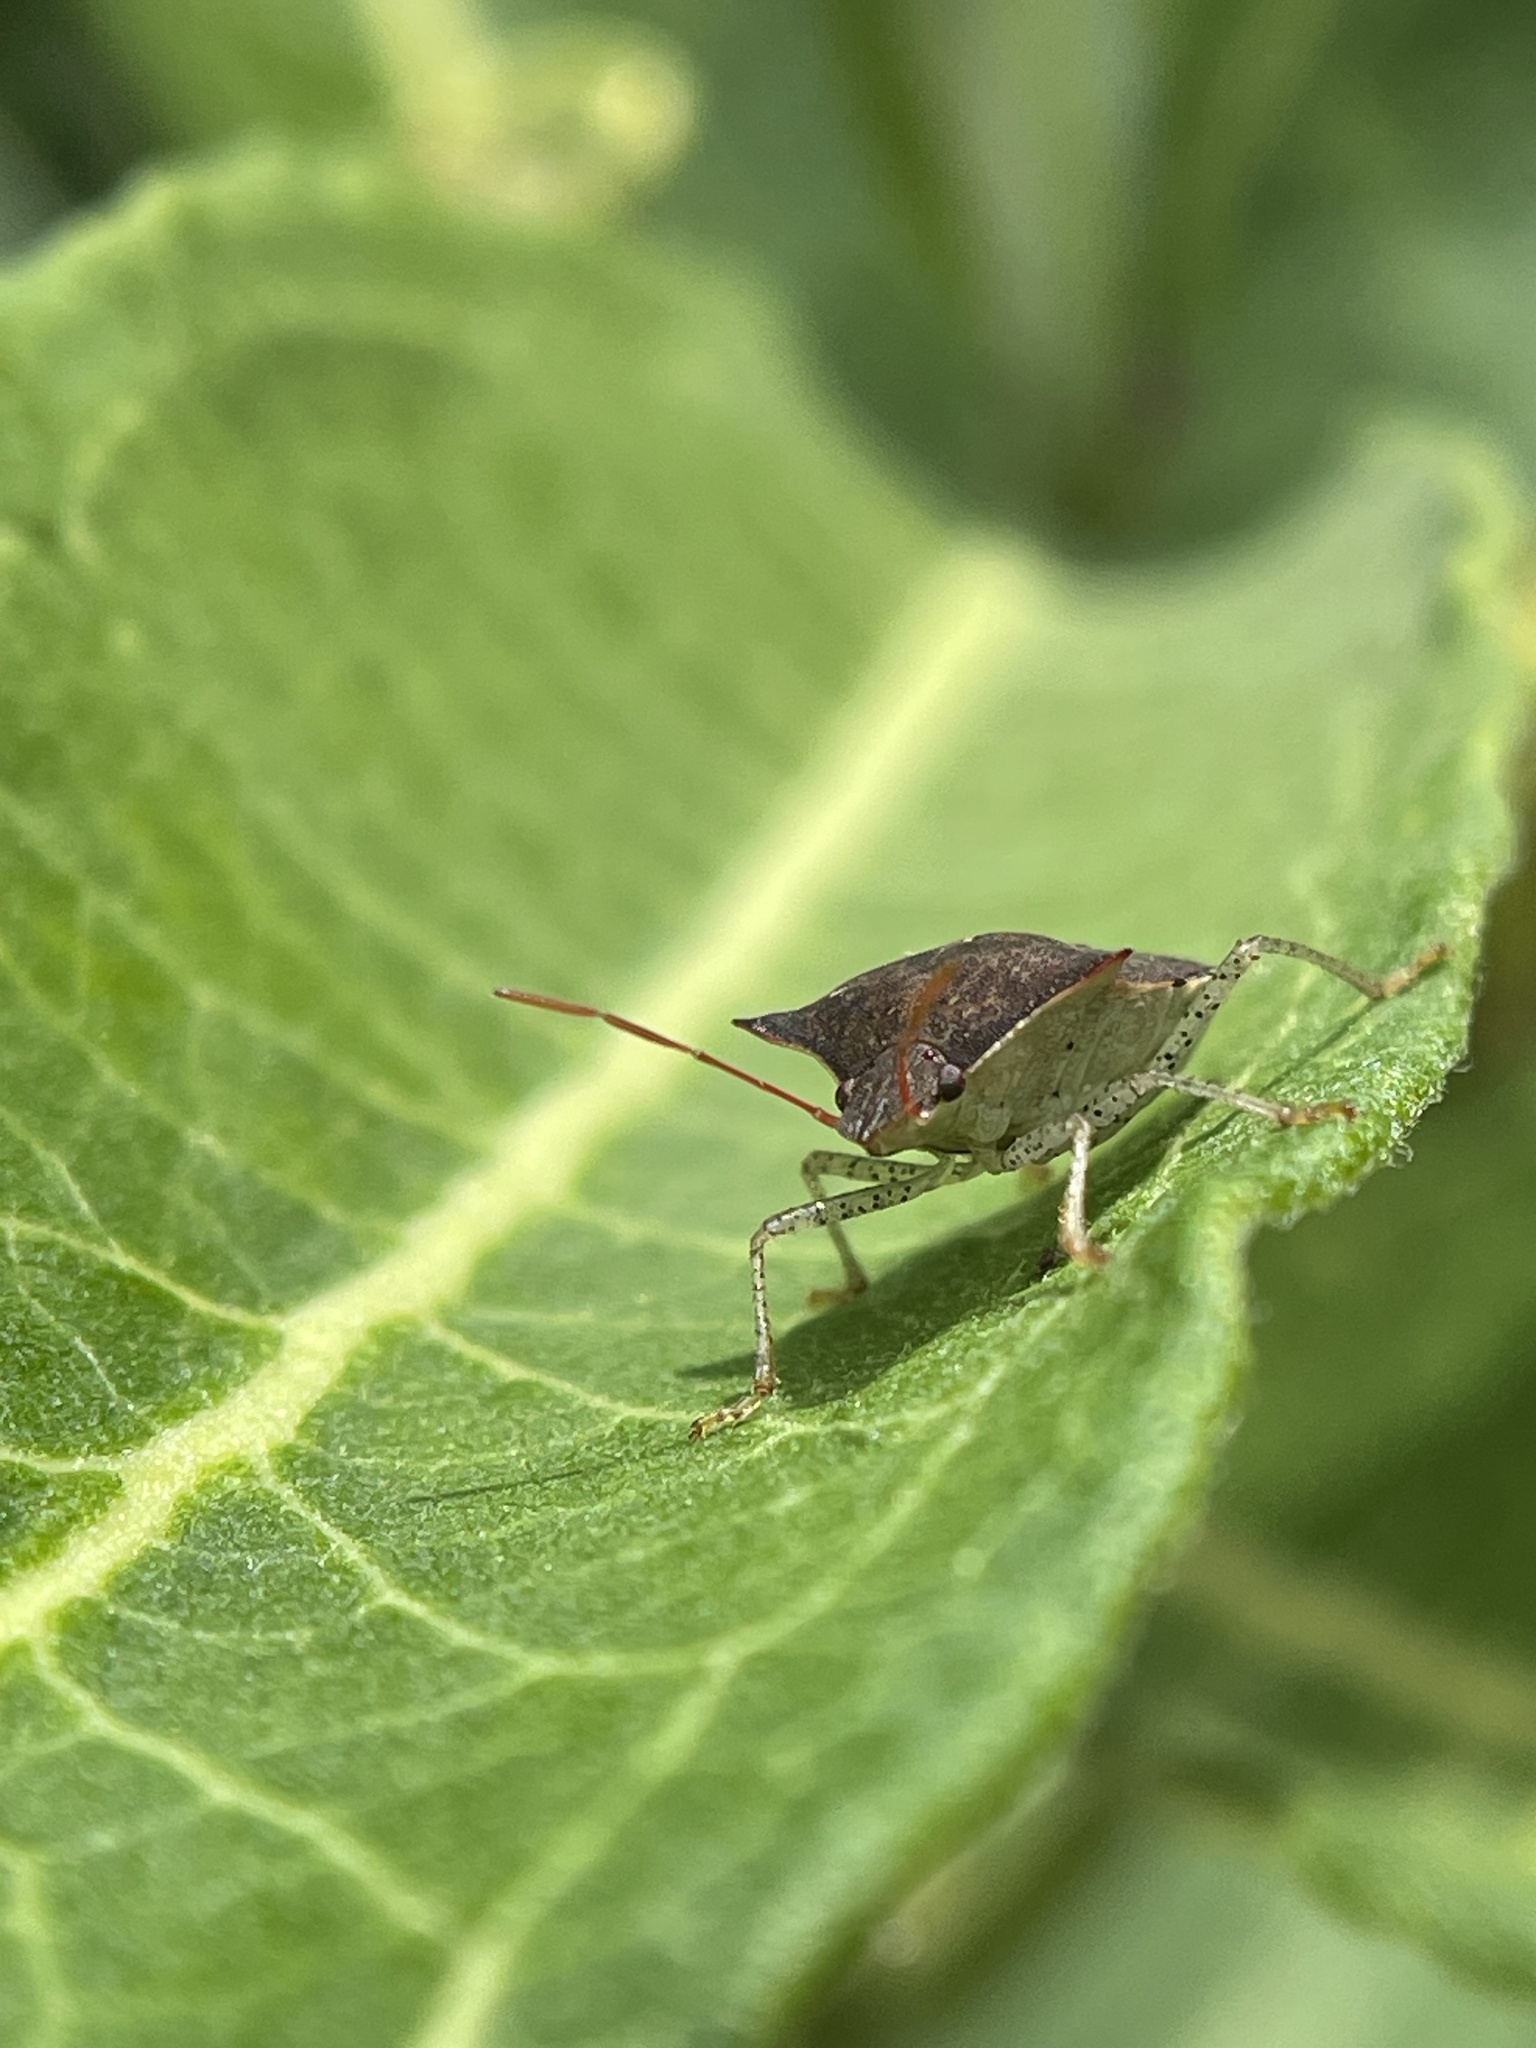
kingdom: Animalia
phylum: Arthropoda
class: Insecta
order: Hemiptera
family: Pentatomidae
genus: Euschistus
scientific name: Euschistus tristigmus
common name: Dusky stink bug
